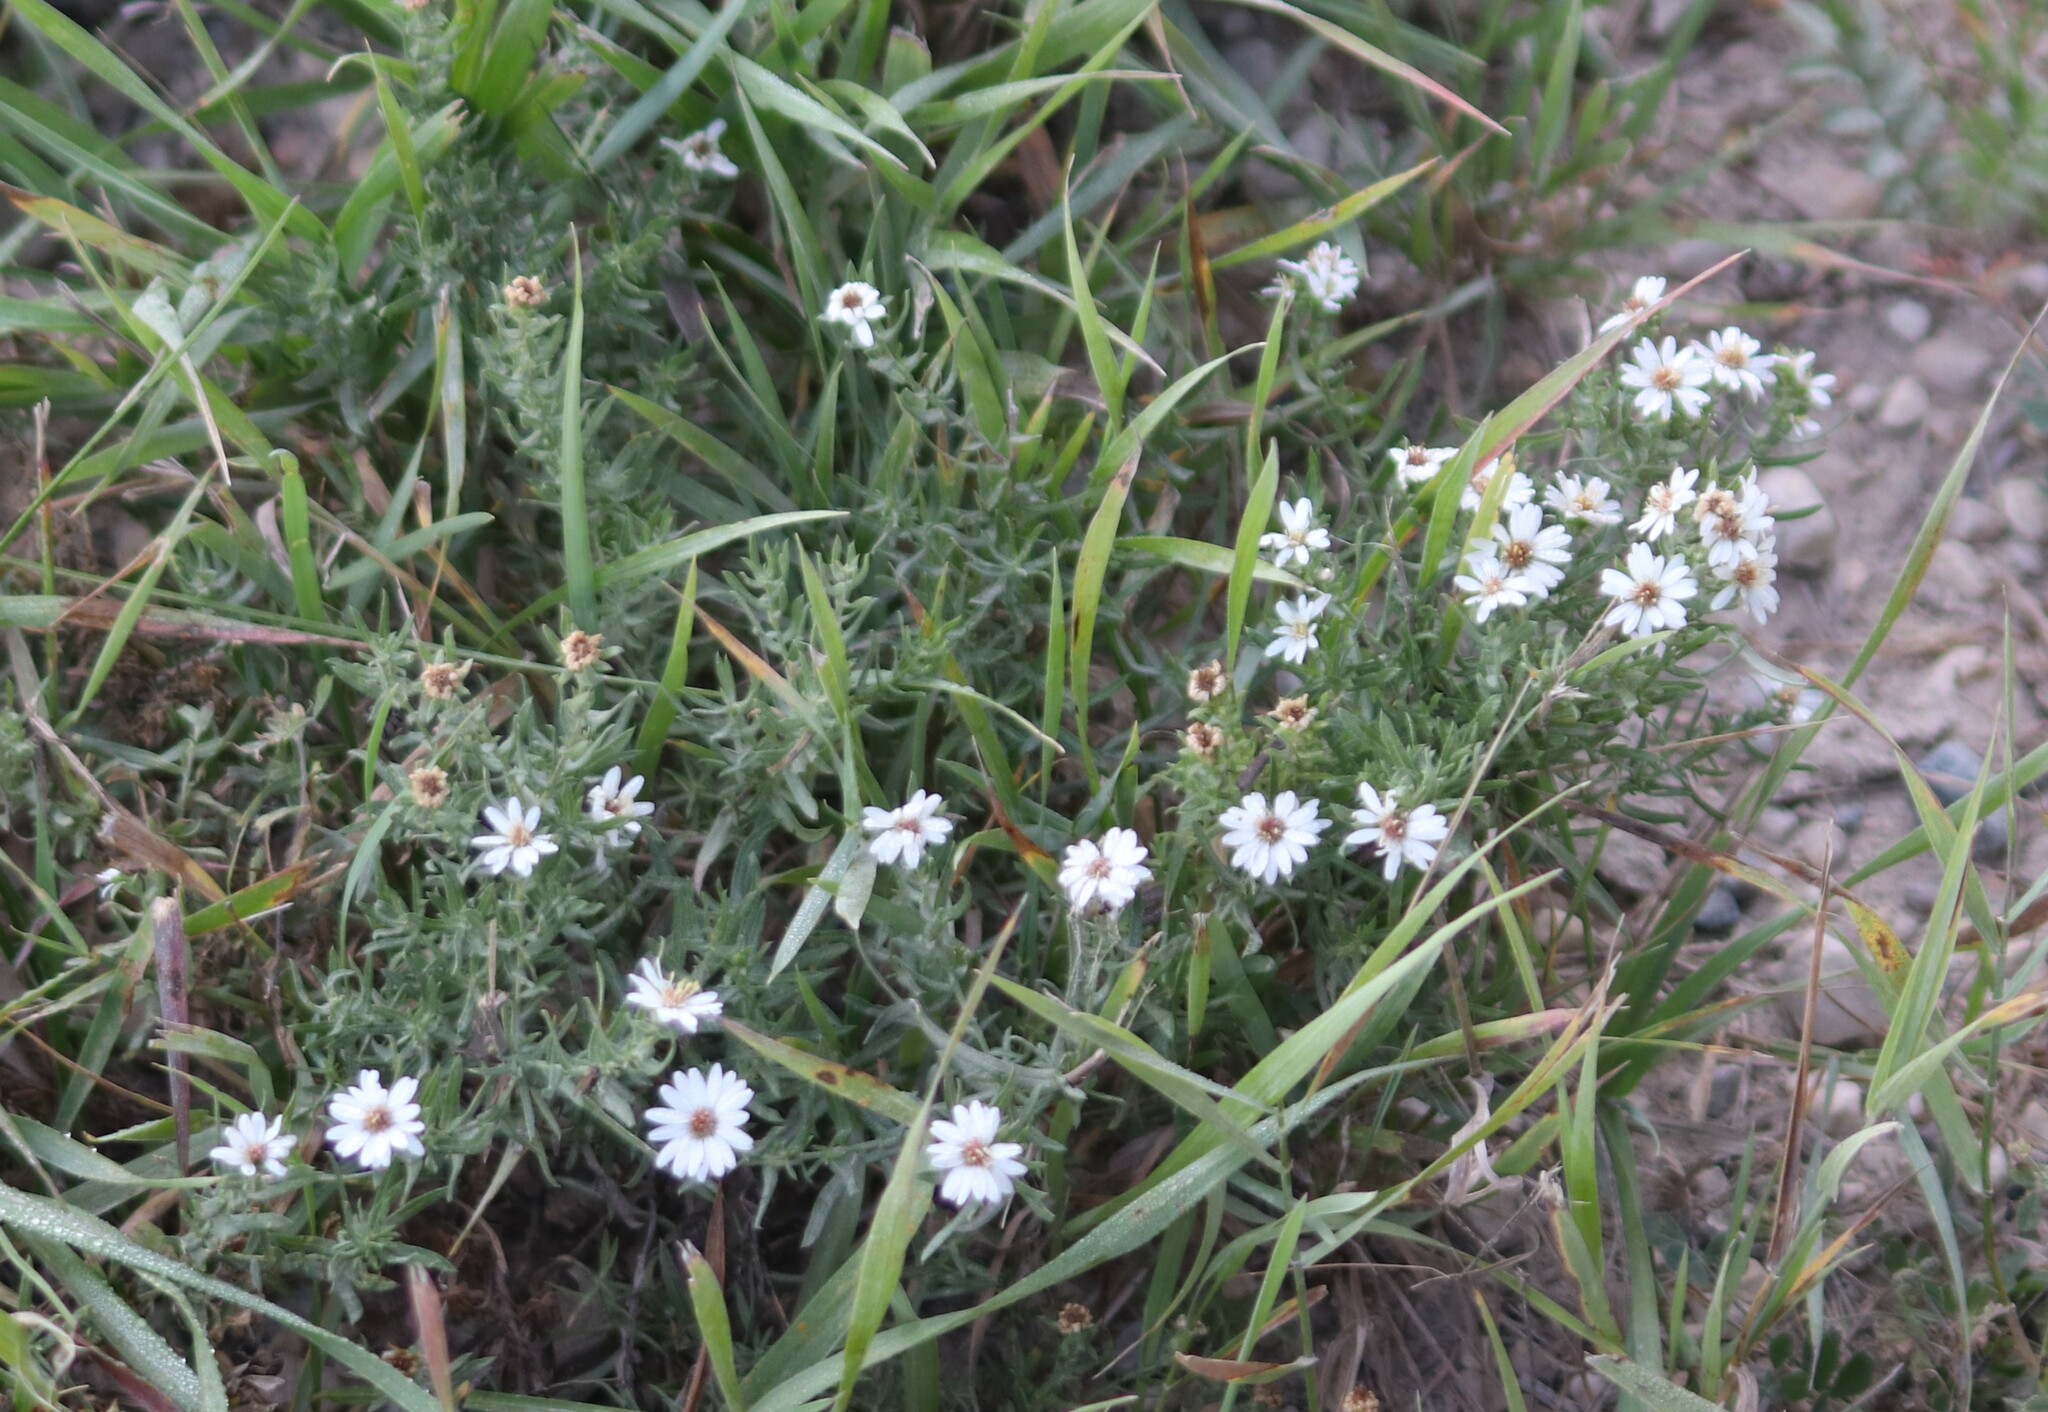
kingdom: Plantae
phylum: Tracheophyta
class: Magnoliopsida
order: Asterales
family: Asteraceae
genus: Symphyotrichum
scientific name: Symphyotrichum ericoides
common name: Heath aster
